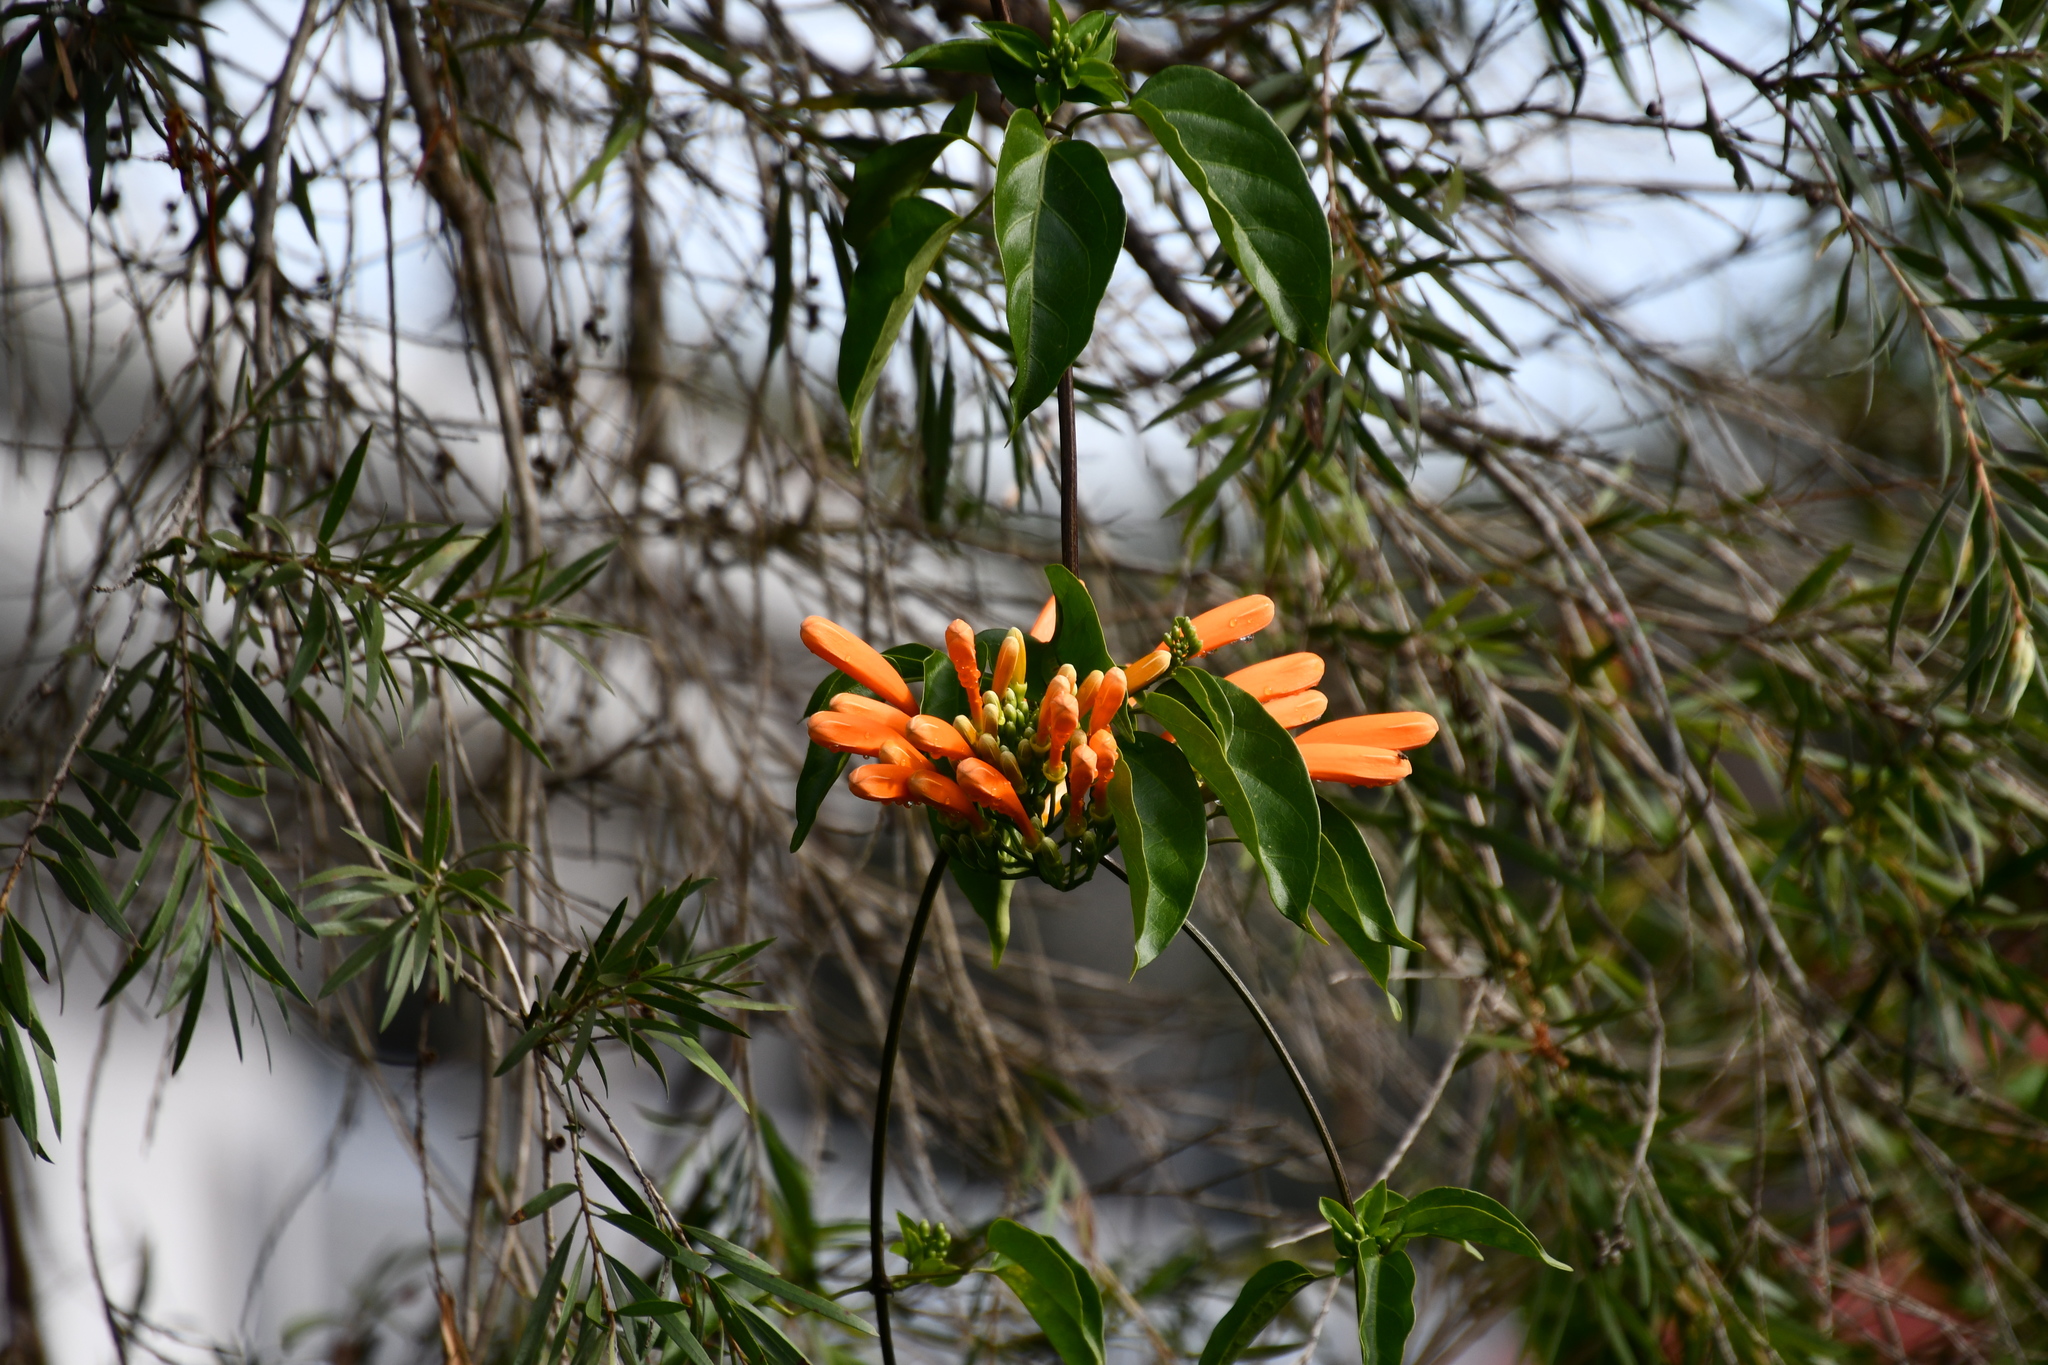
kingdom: Plantae
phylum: Tracheophyta
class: Magnoliopsida
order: Lamiales
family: Bignoniaceae
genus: Pyrostegia
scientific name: Pyrostegia venusta
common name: Flamevine
